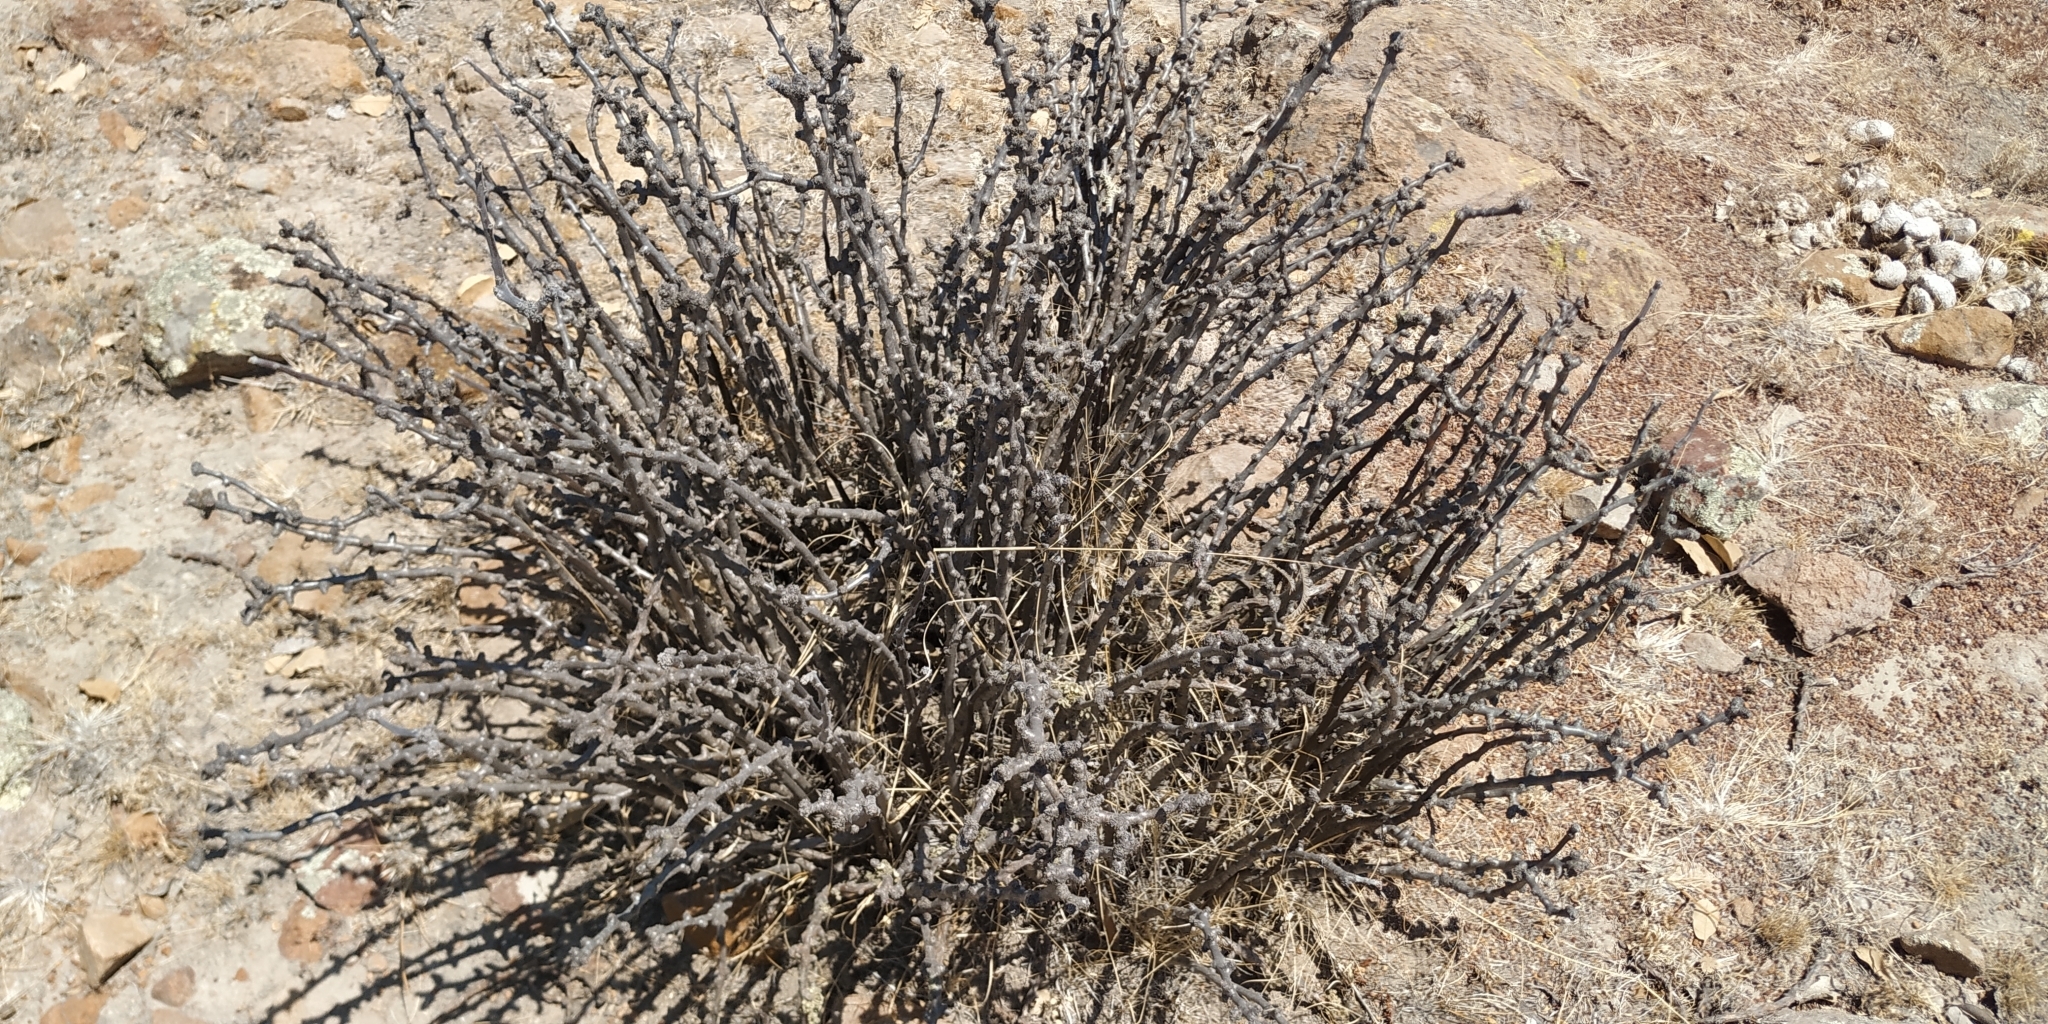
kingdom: Plantae
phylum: Tracheophyta
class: Magnoliopsida
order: Malpighiales
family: Euphorbiaceae
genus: Jatropha
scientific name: Jatropha dioica
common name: Leatherstem
